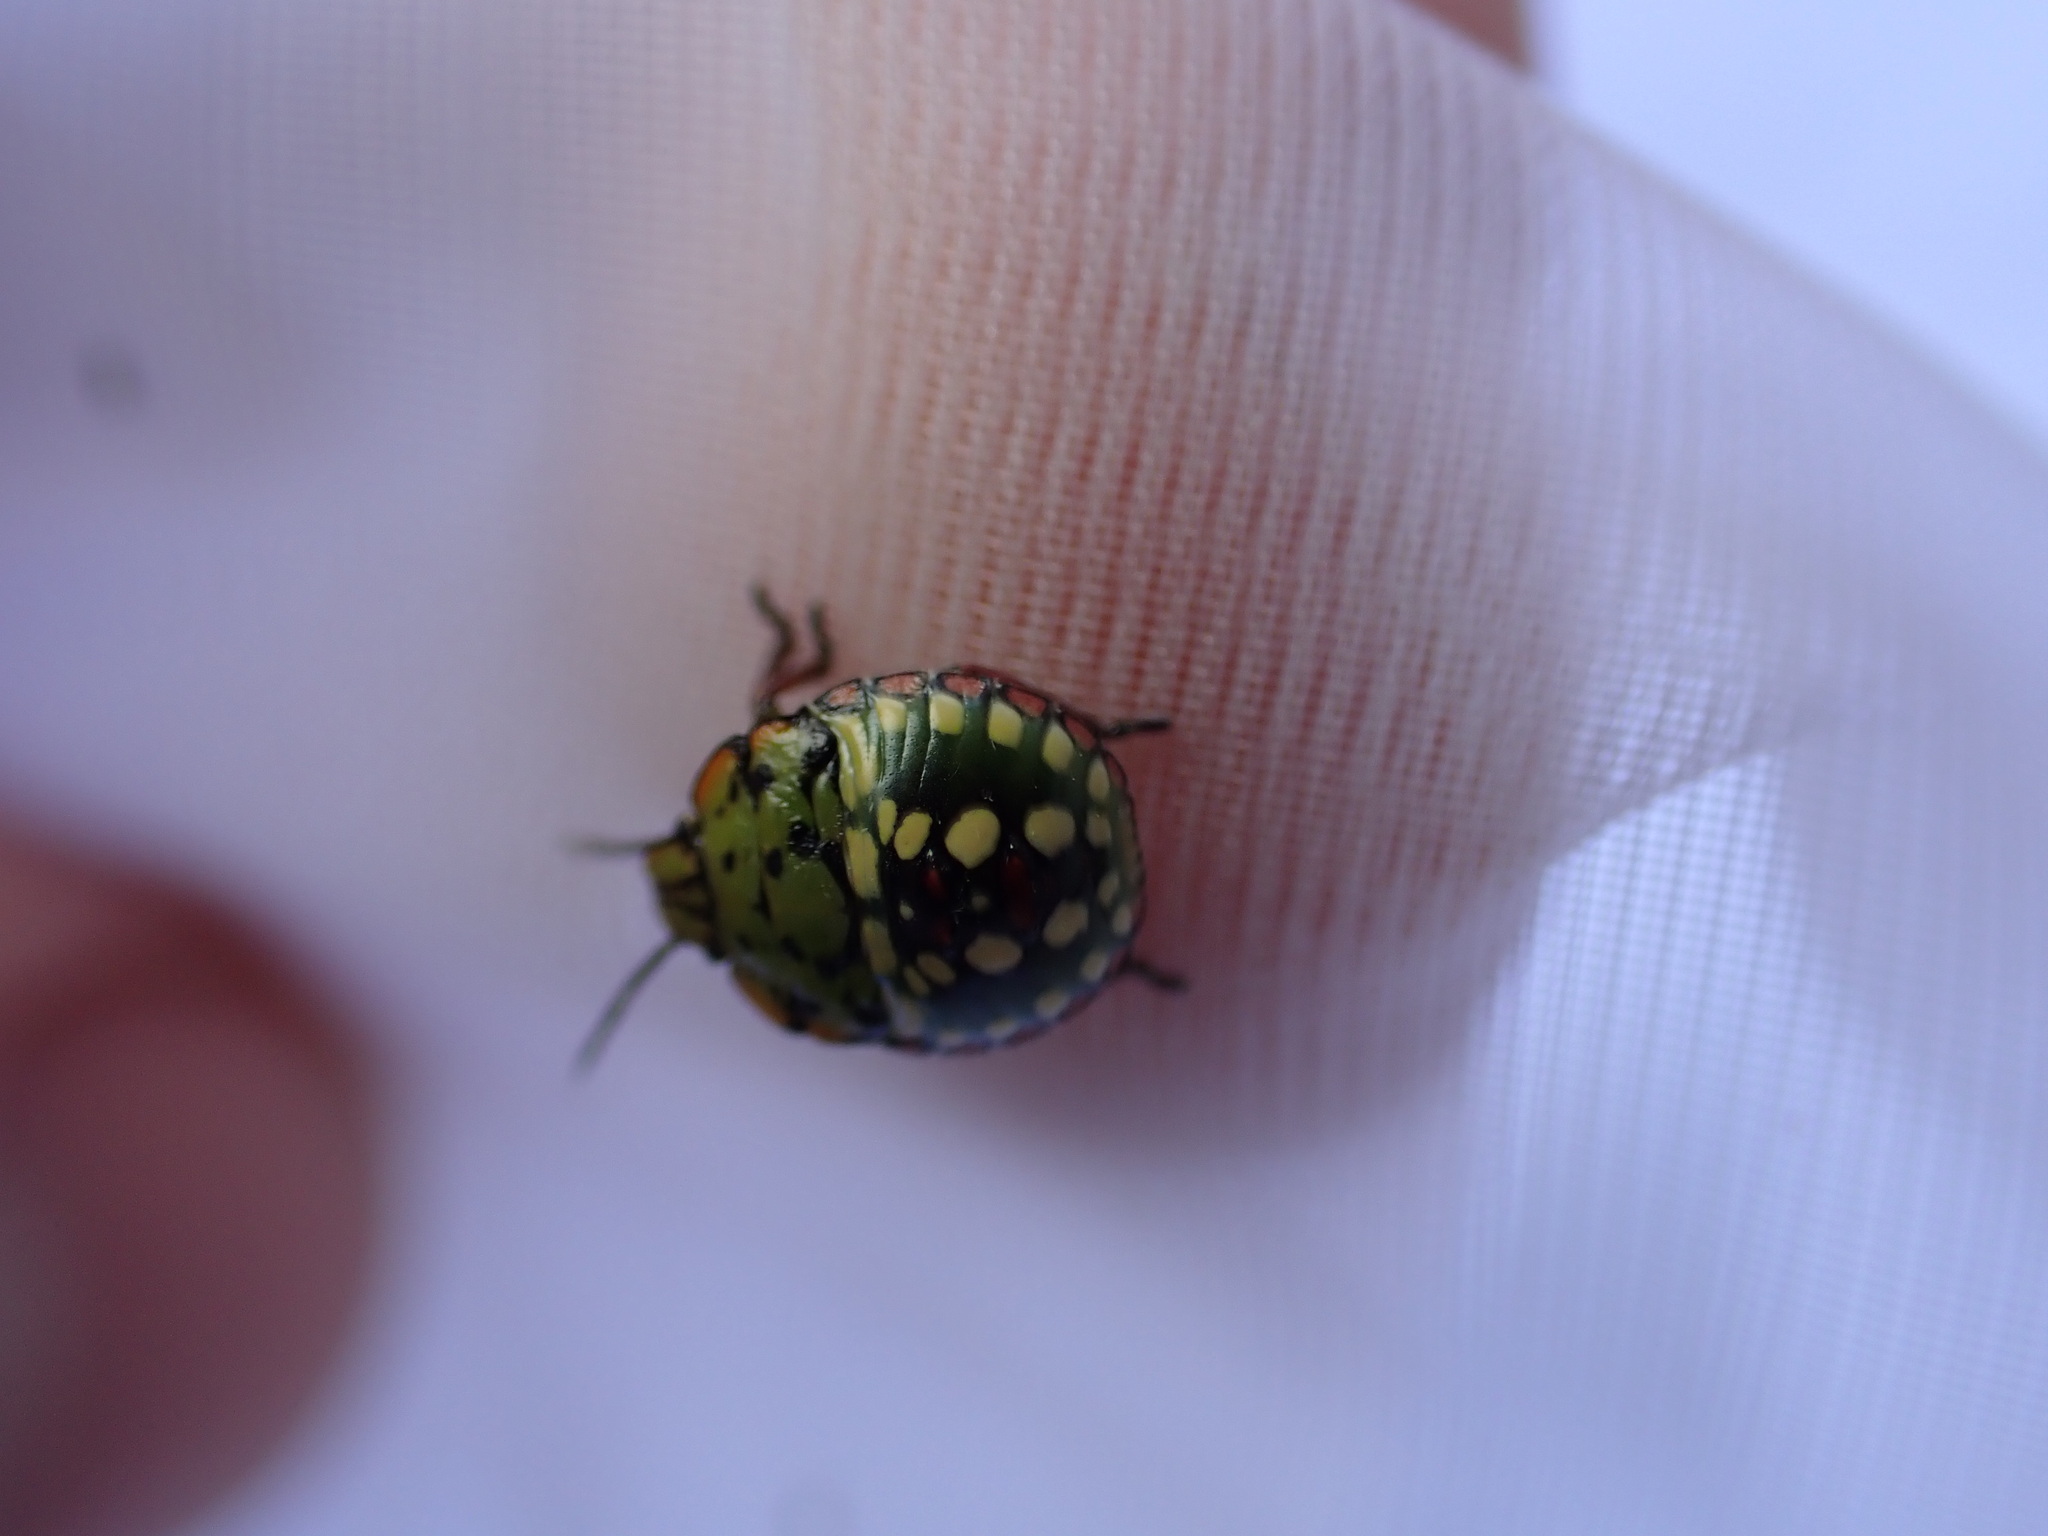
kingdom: Animalia
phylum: Arthropoda
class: Insecta
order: Hemiptera
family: Pentatomidae
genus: Nezara
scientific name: Nezara viridula
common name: Southern green stink bug
